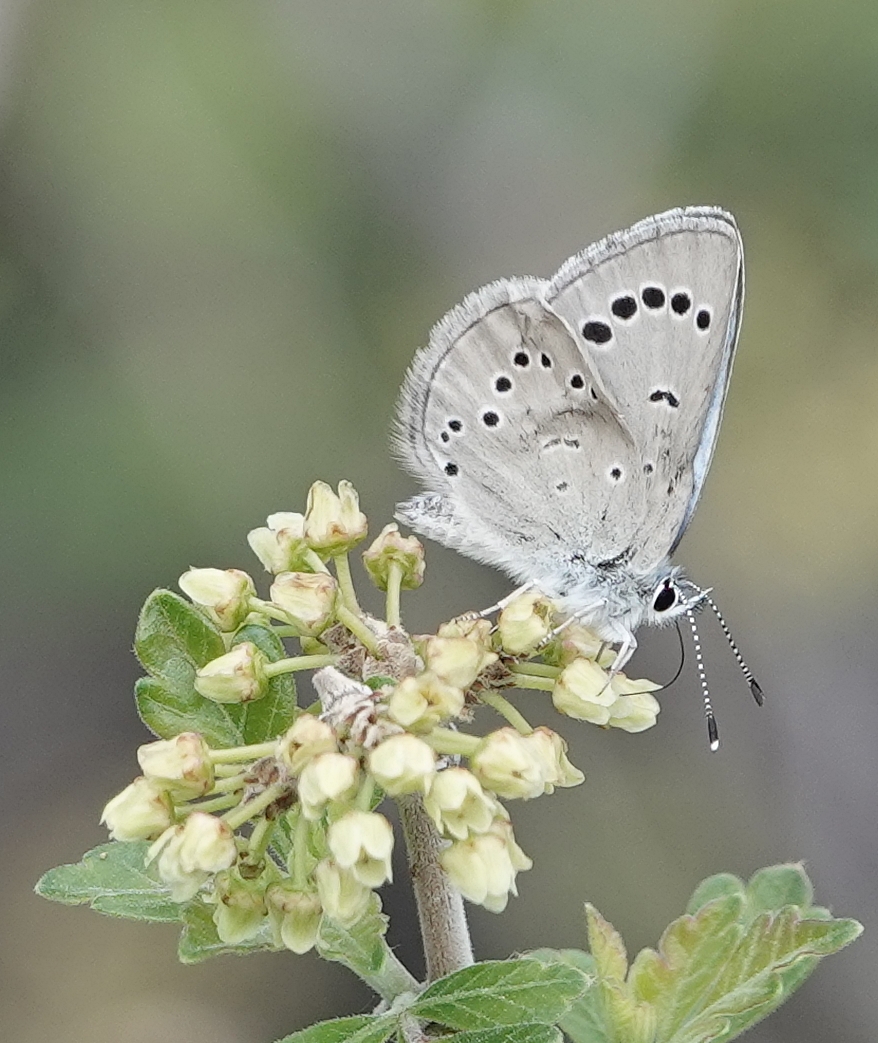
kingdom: Animalia
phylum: Arthropoda
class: Insecta
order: Lepidoptera
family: Lycaenidae
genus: Glaucopsyche
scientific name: Glaucopsyche lygdamus
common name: Silvery blue
